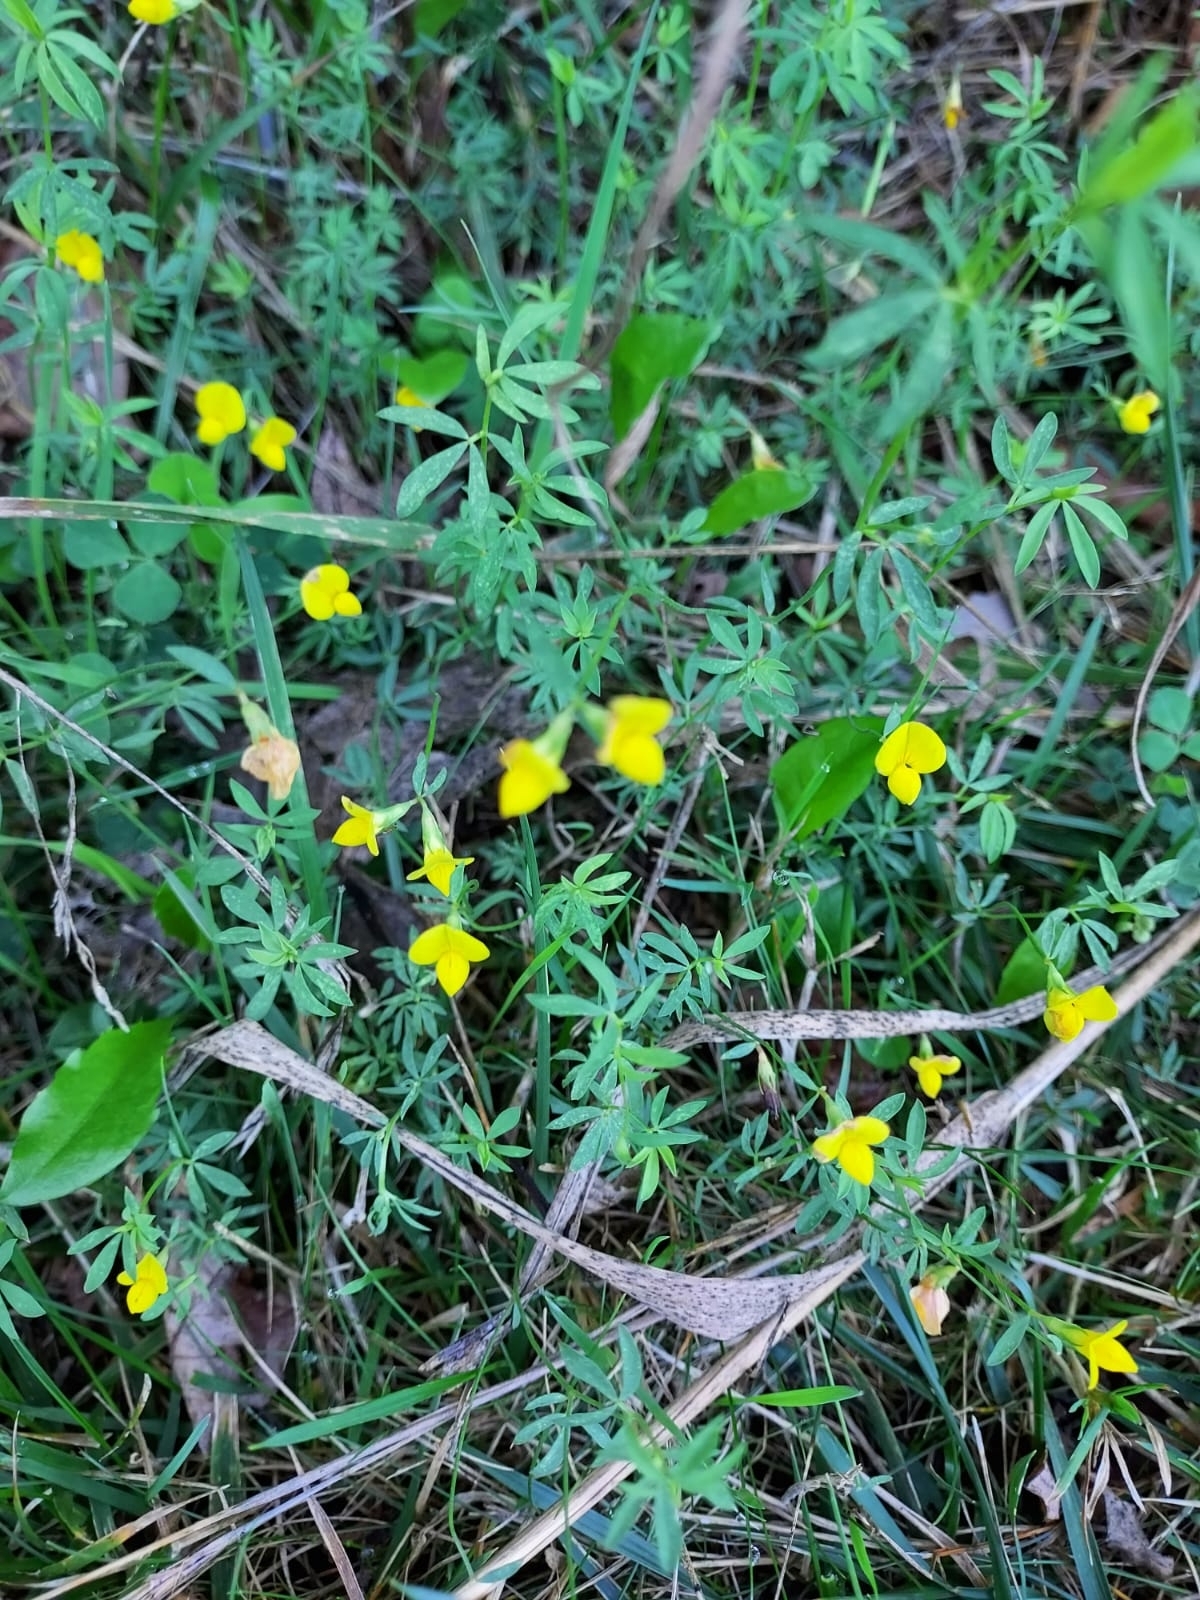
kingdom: Plantae
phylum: Tracheophyta
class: Magnoliopsida
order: Fabales
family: Fabaceae
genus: Lotus
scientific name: Lotus tenuis
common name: Narrow-leaved bird's-foot-trefoil
